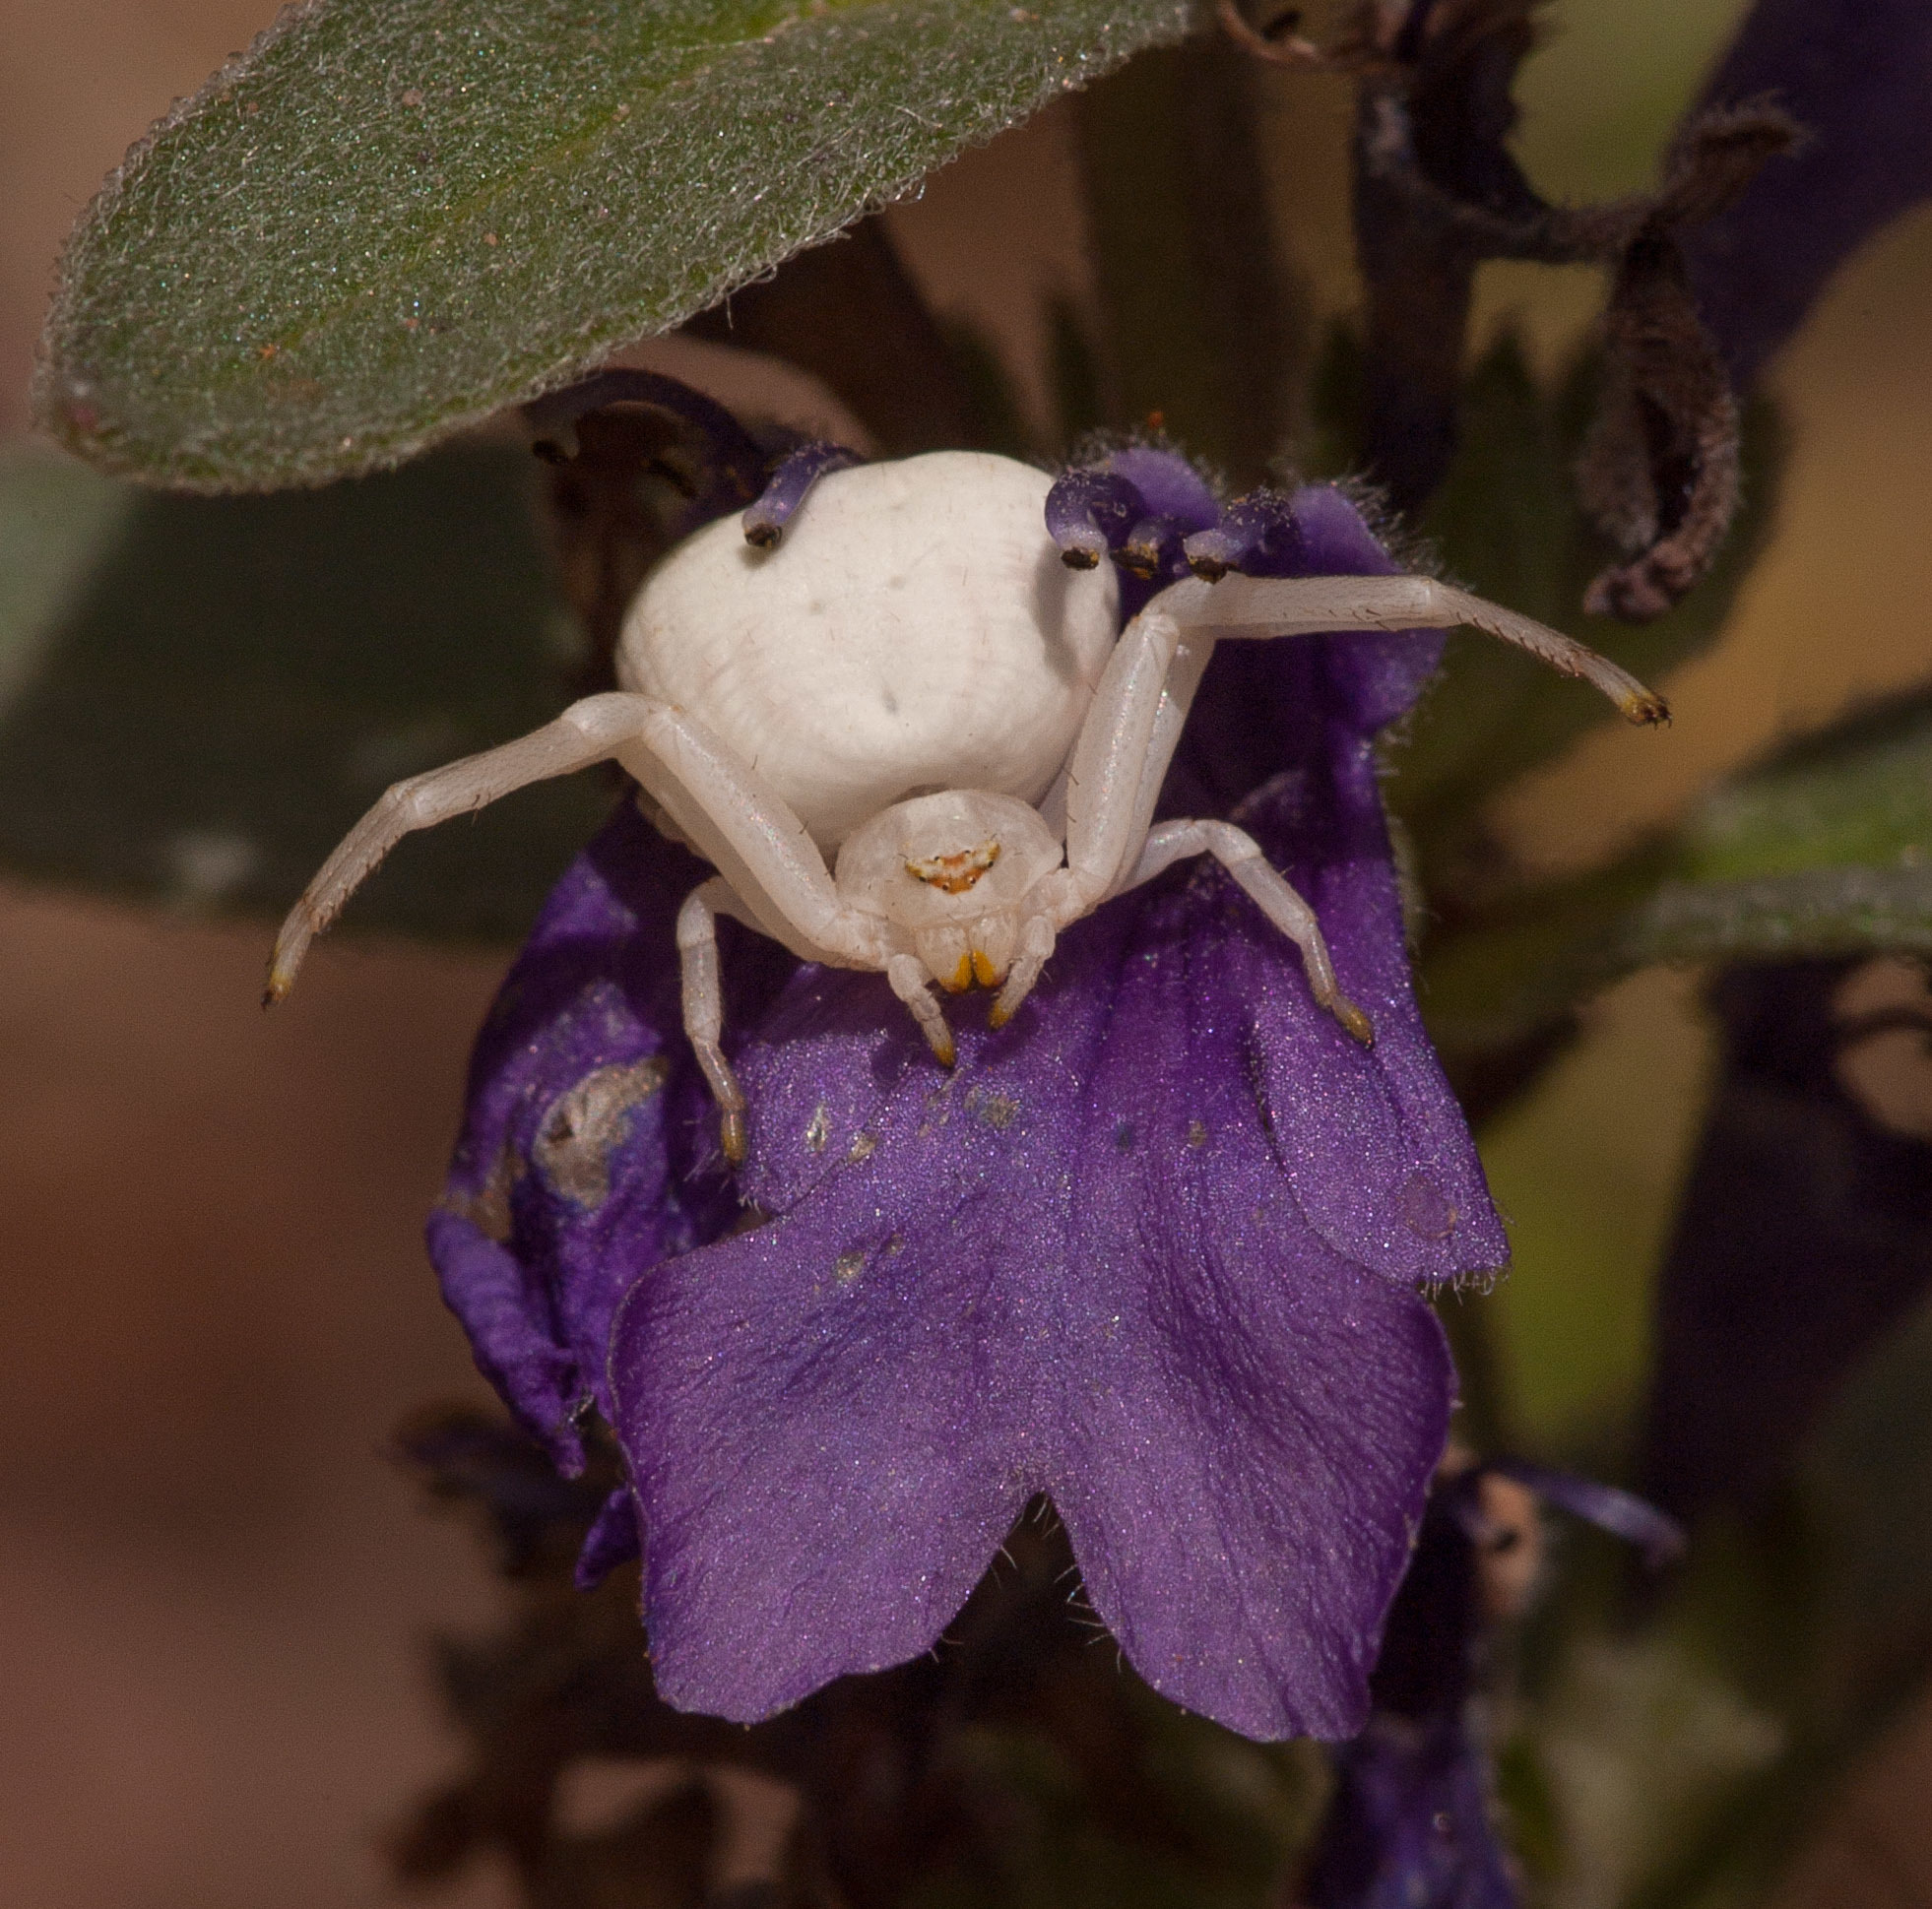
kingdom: Animalia
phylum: Arthropoda
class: Arachnida
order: Araneae
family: Thomisidae
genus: Zygometis
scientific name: Zygometis xanthogaster
